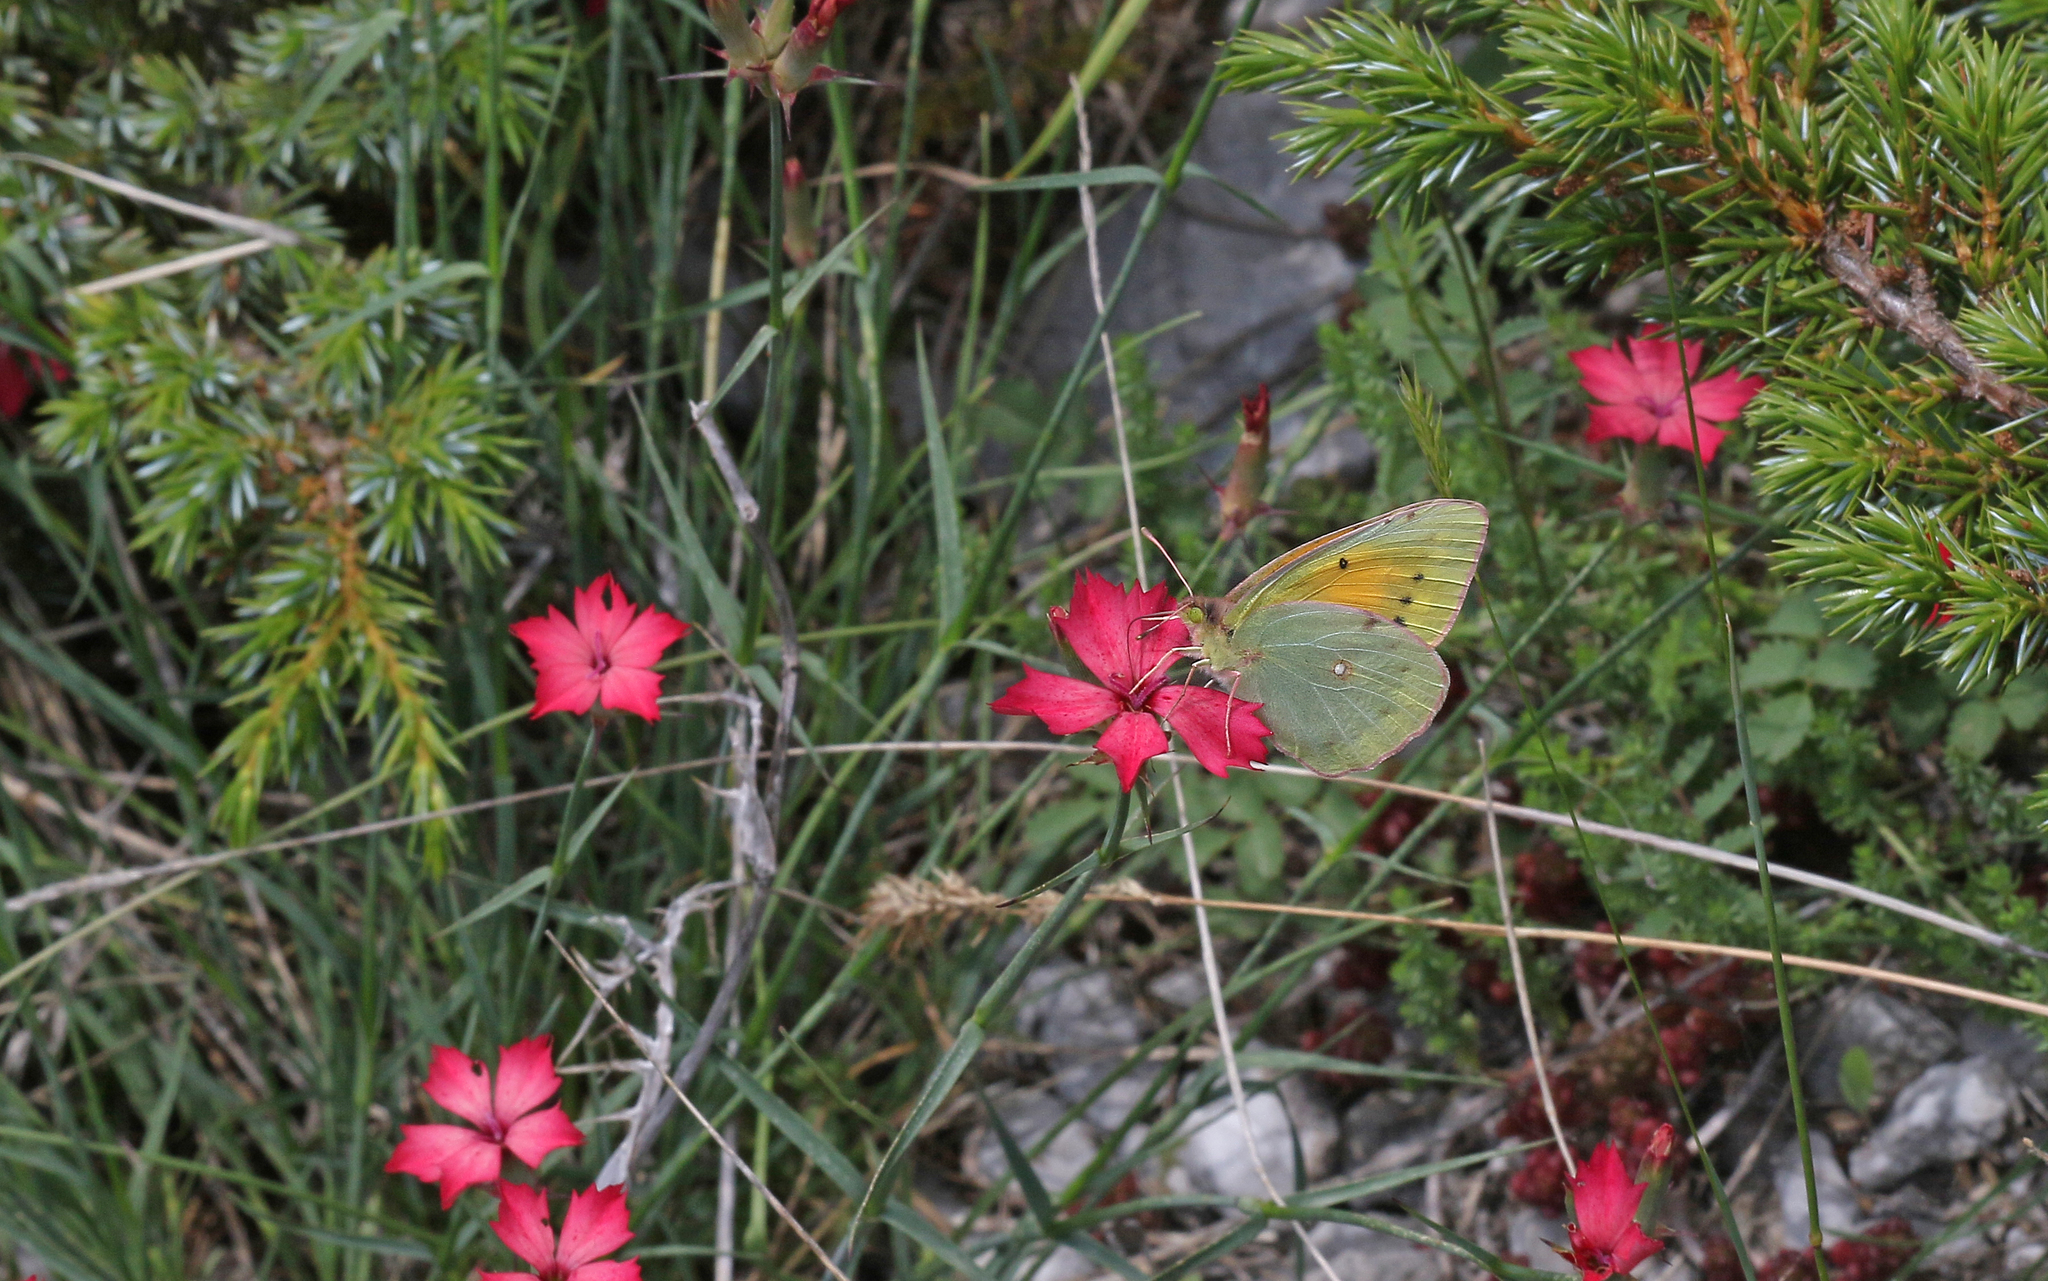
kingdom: Animalia
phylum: Arthropoda
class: Insecta
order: Lepidoptera
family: Pieridae
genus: Colias
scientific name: Colias aurorina
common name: Greek clouded yellow
